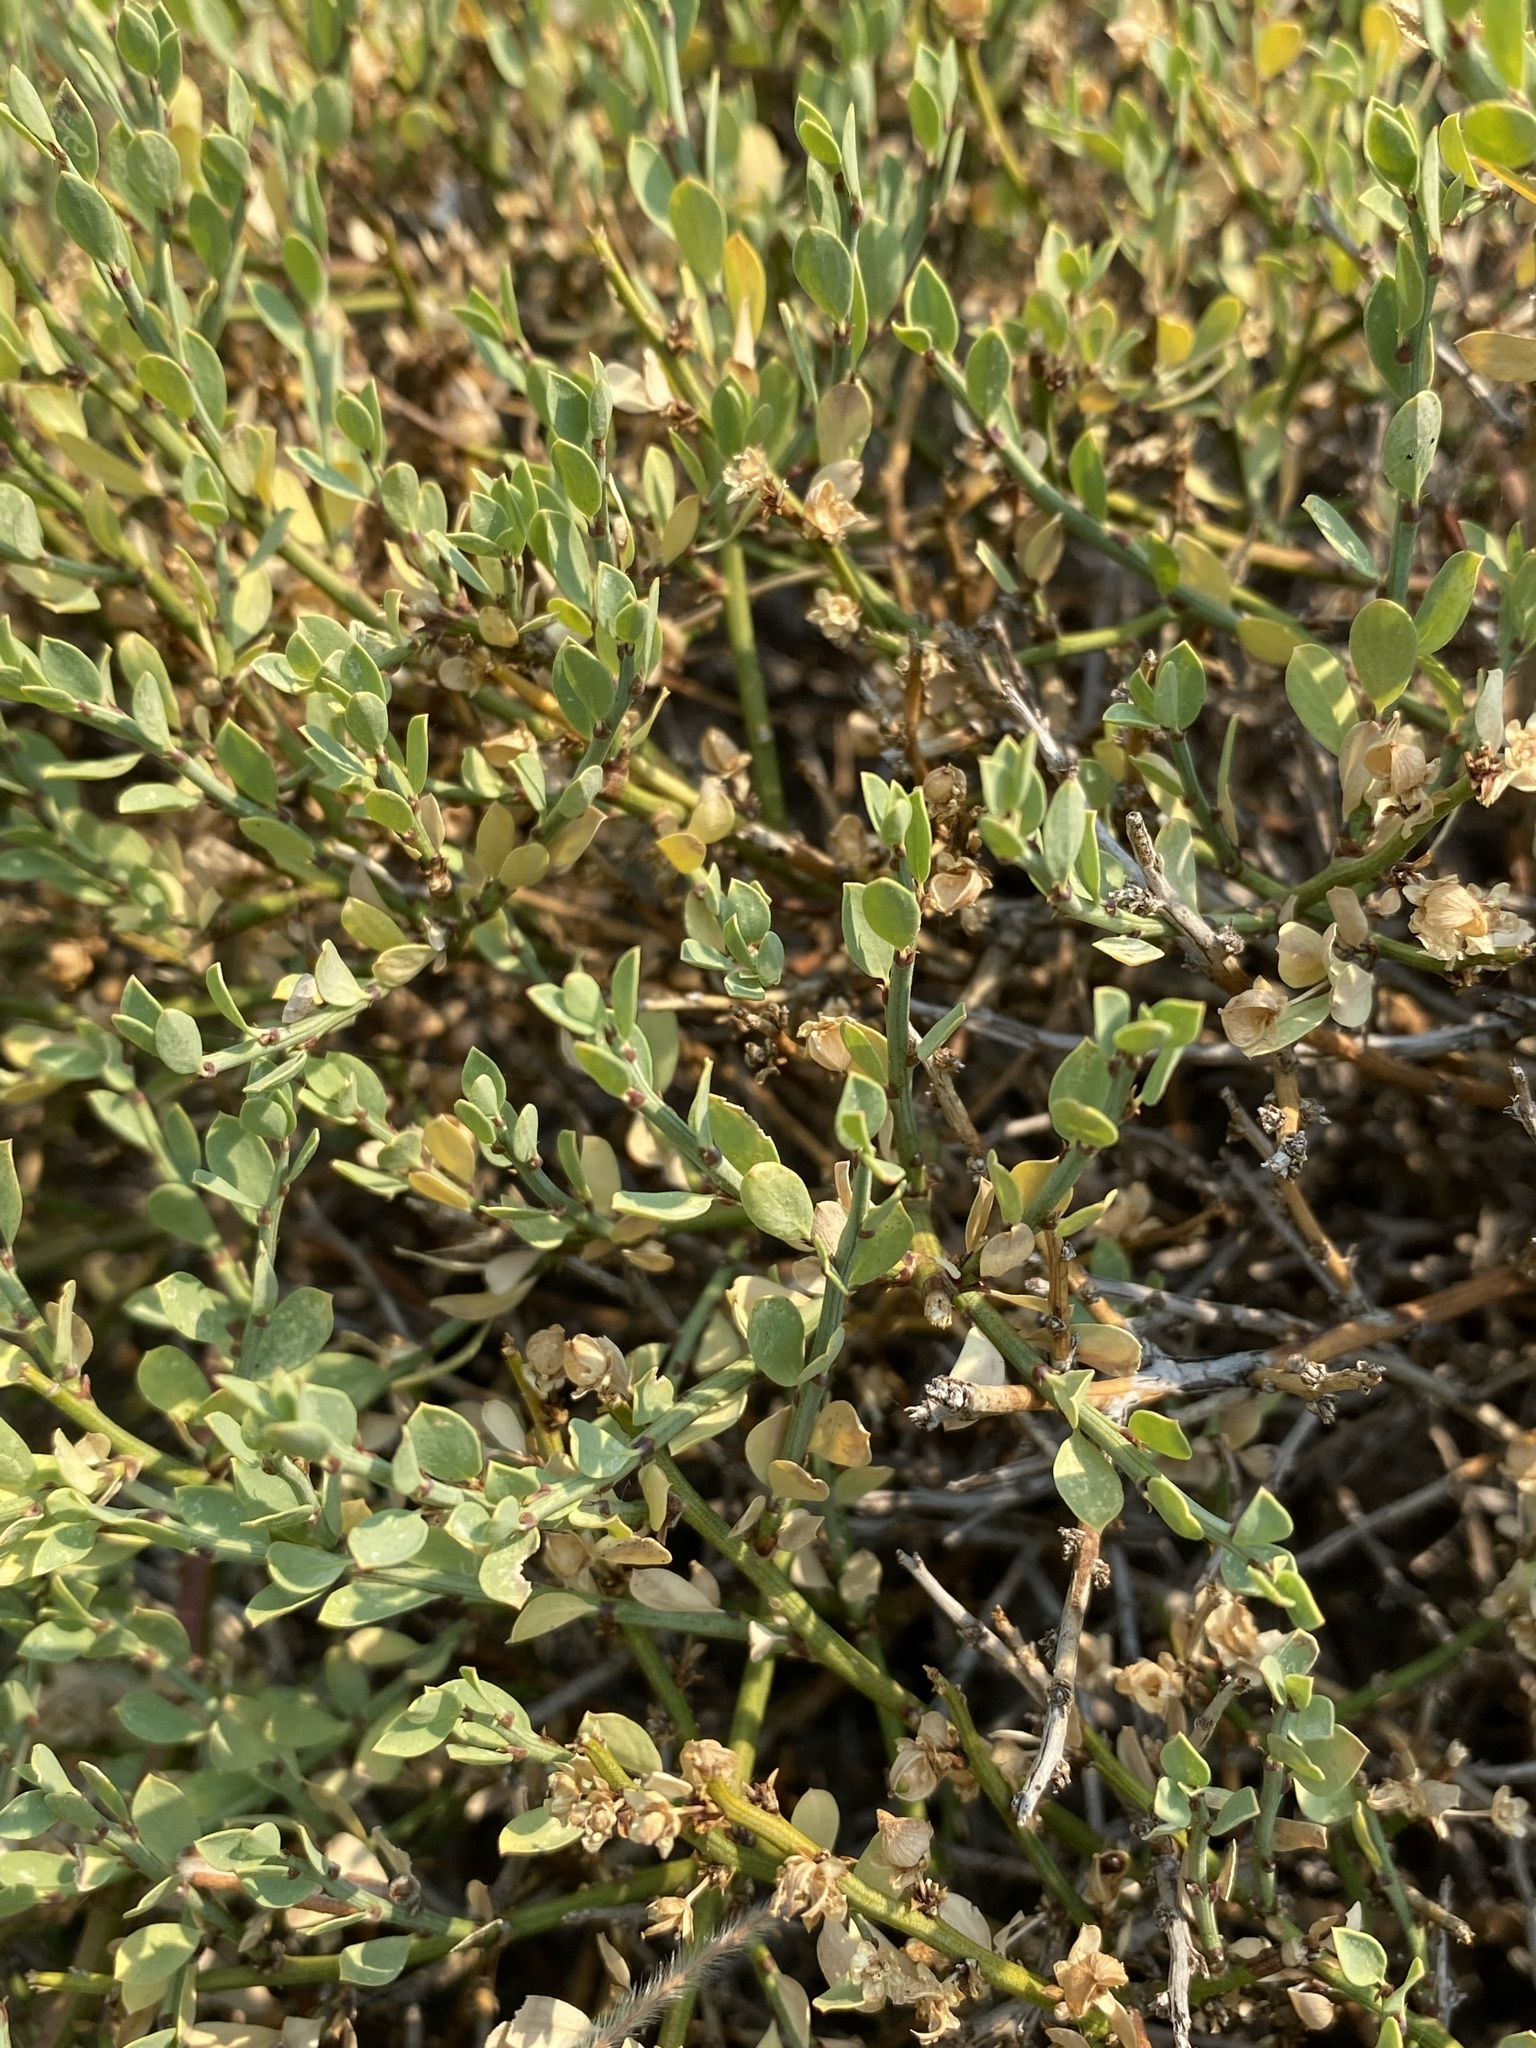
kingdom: Plantae
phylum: Tracheophyta
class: Magnoliopsida
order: Crossosomatales
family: Crossosomataceae
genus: Glossopetalon
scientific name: Glossopetalon spinescens
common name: Spring greasebush
